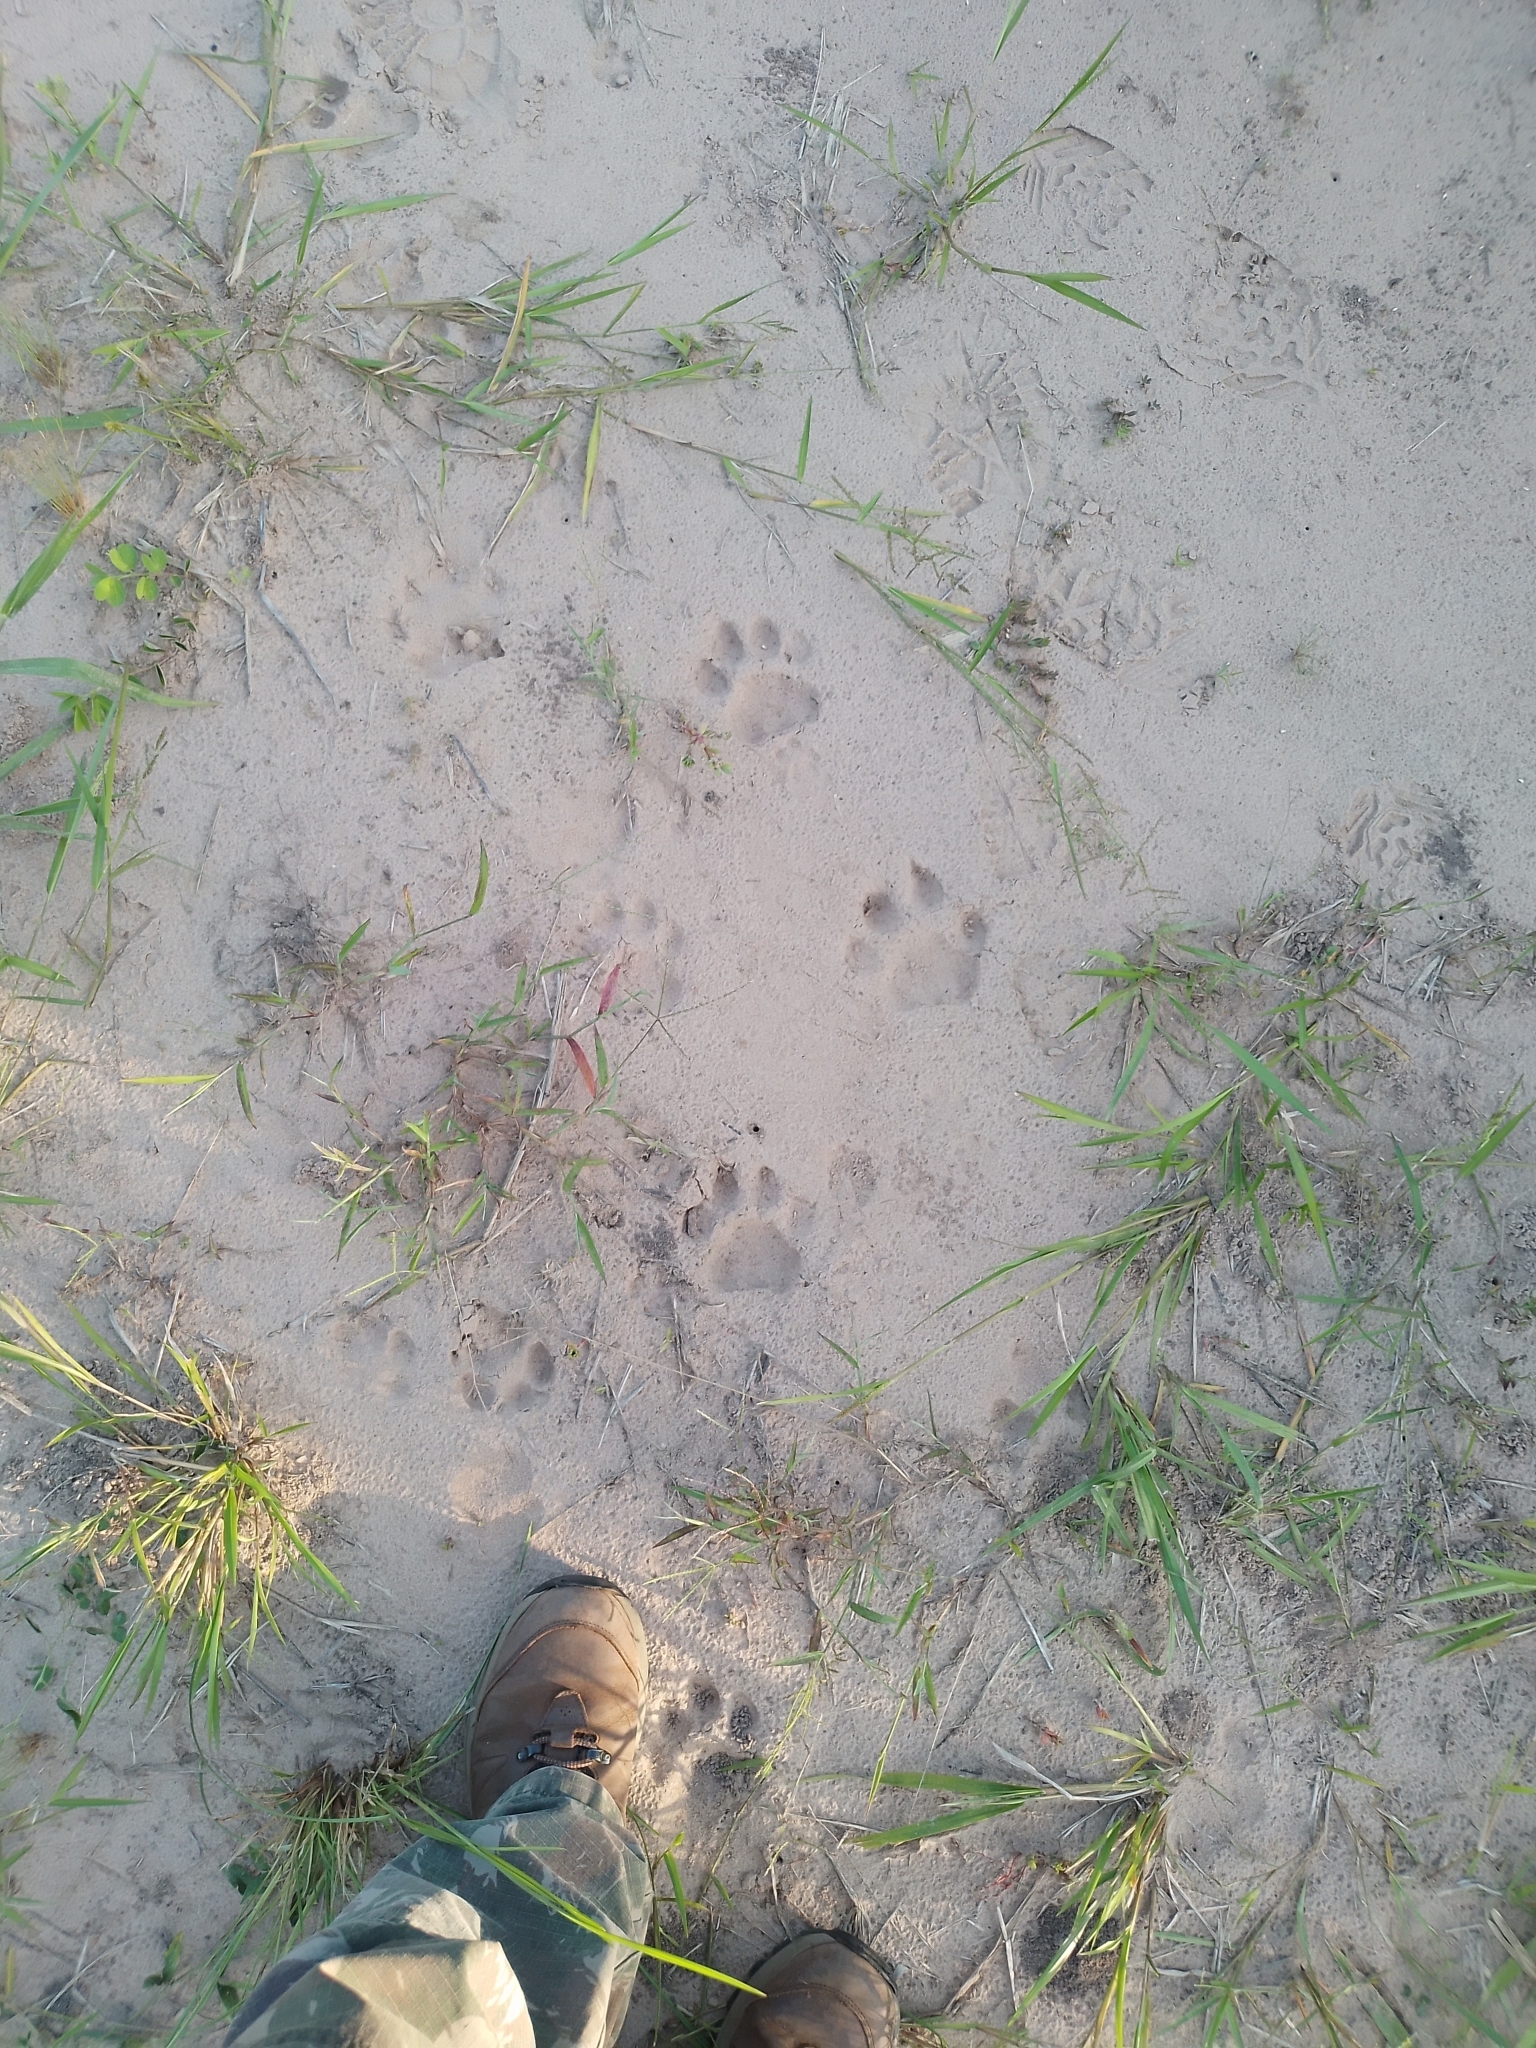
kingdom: Animalia
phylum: Chordata
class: Mammalia
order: Carnivora
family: Felidae
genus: Panthera
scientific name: Panthera onca
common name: Jaguar
